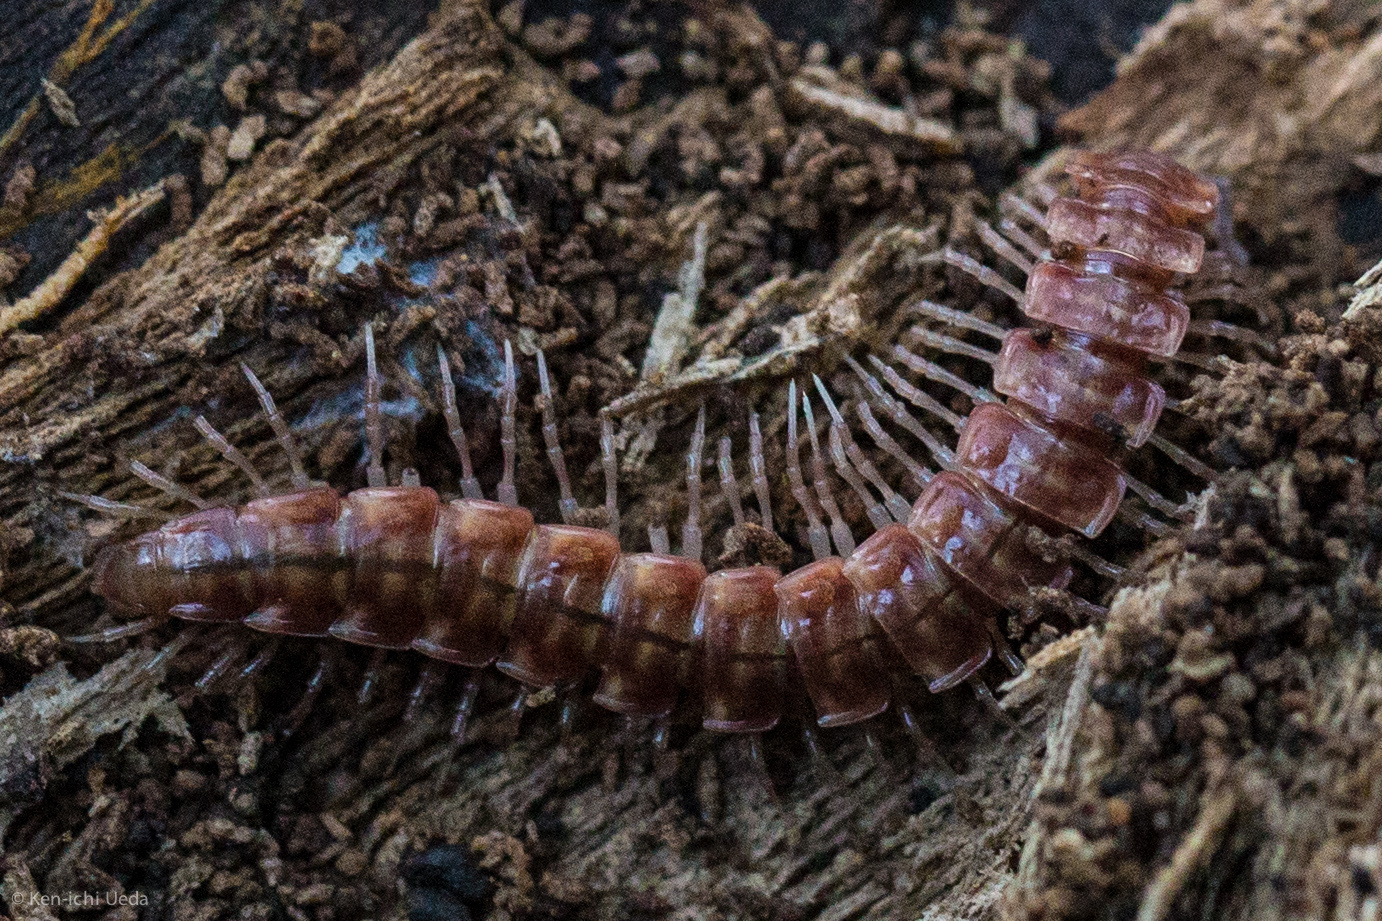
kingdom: Animalia
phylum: Arthropoda
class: Diplopoda
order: Polydesmida
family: Nearctodesmidae
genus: Nearctodesmus
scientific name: Nearctodesmus salix
